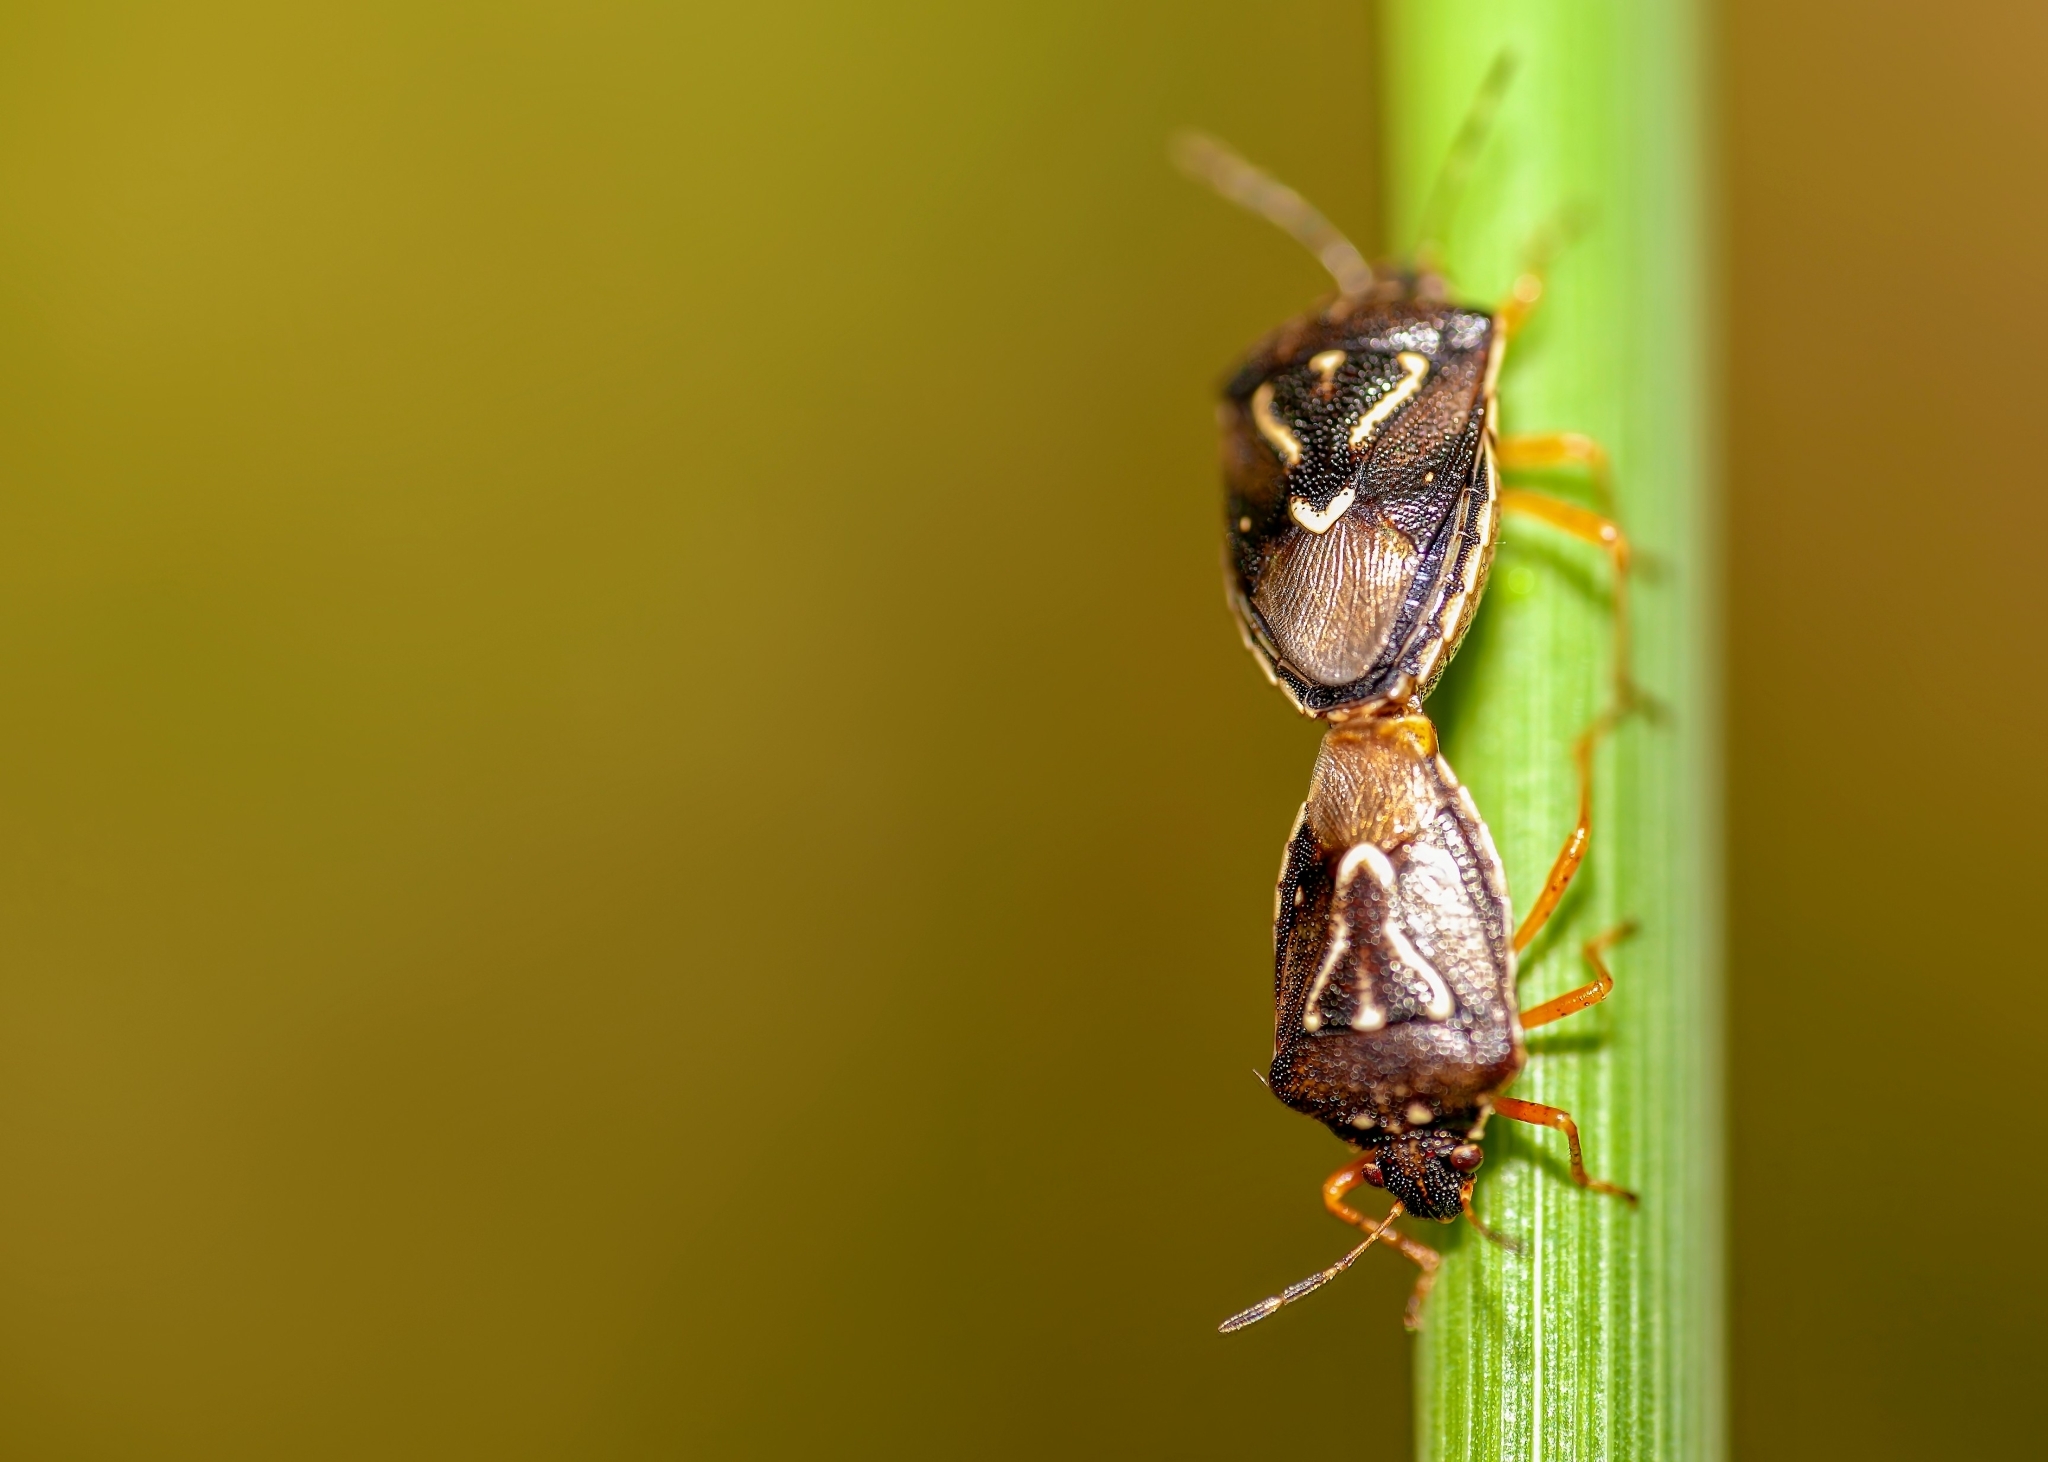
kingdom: Animalia
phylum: Arthropoda
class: Insecta
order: Hemiptera
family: Pentatomidae
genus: Mormidea
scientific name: Mormidea pama
